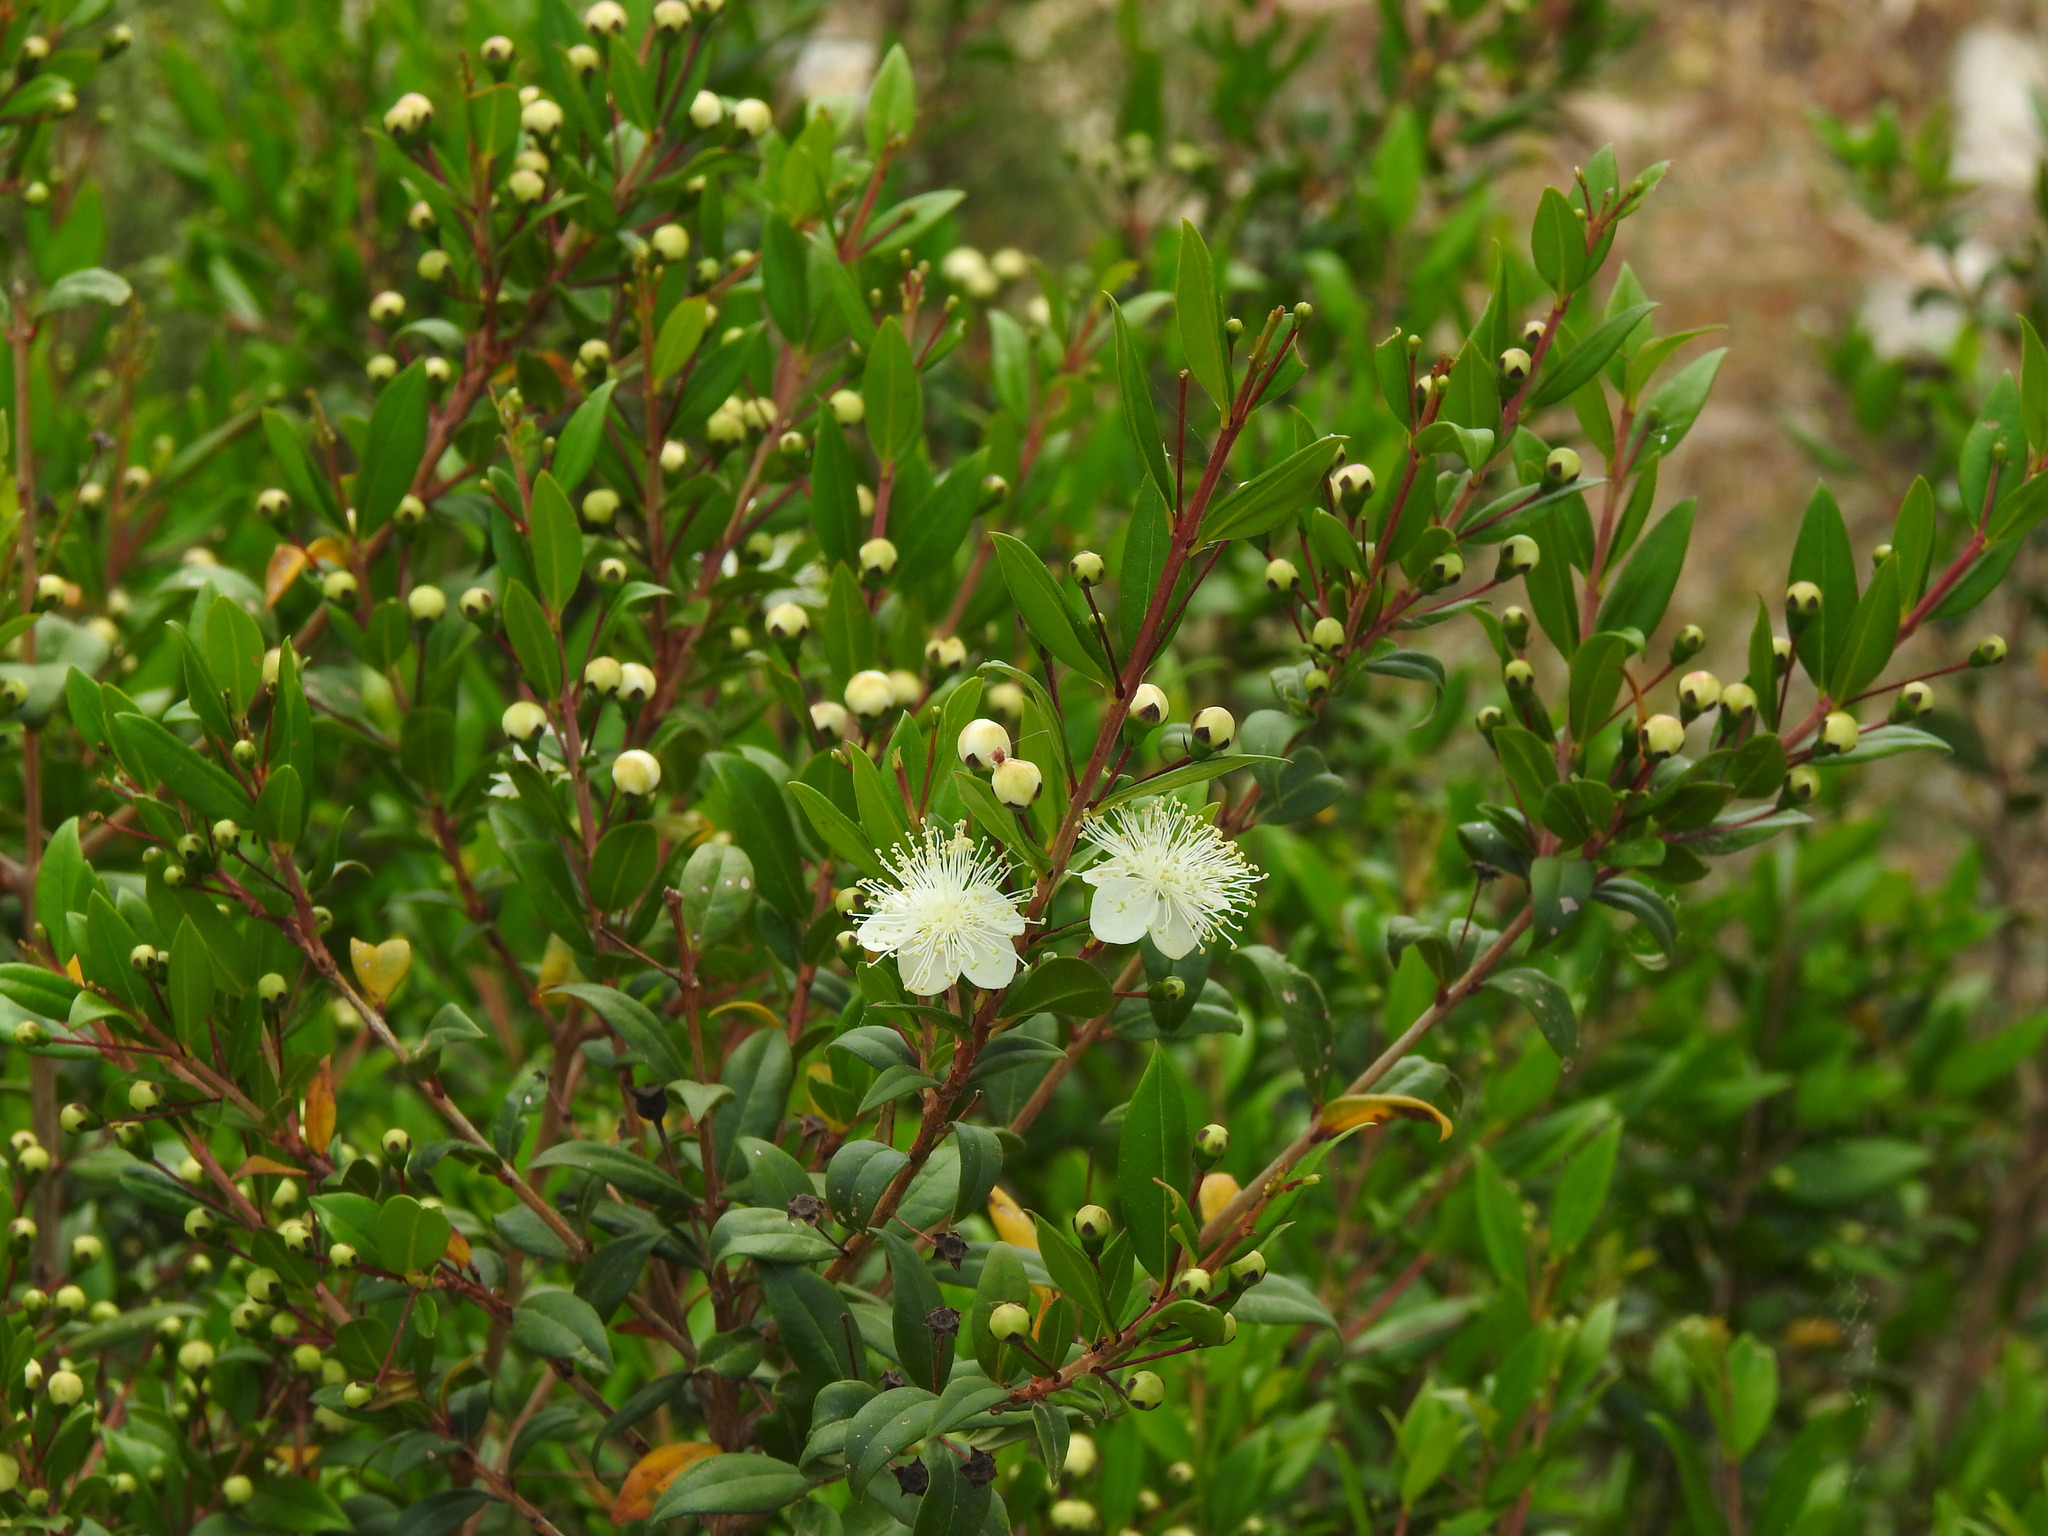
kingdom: Plantae
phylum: Tracheophyta
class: Magnoliopsida
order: Myrtales
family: Myrtaceae
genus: Myrtus
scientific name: Myrtus communis
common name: Myrtle
